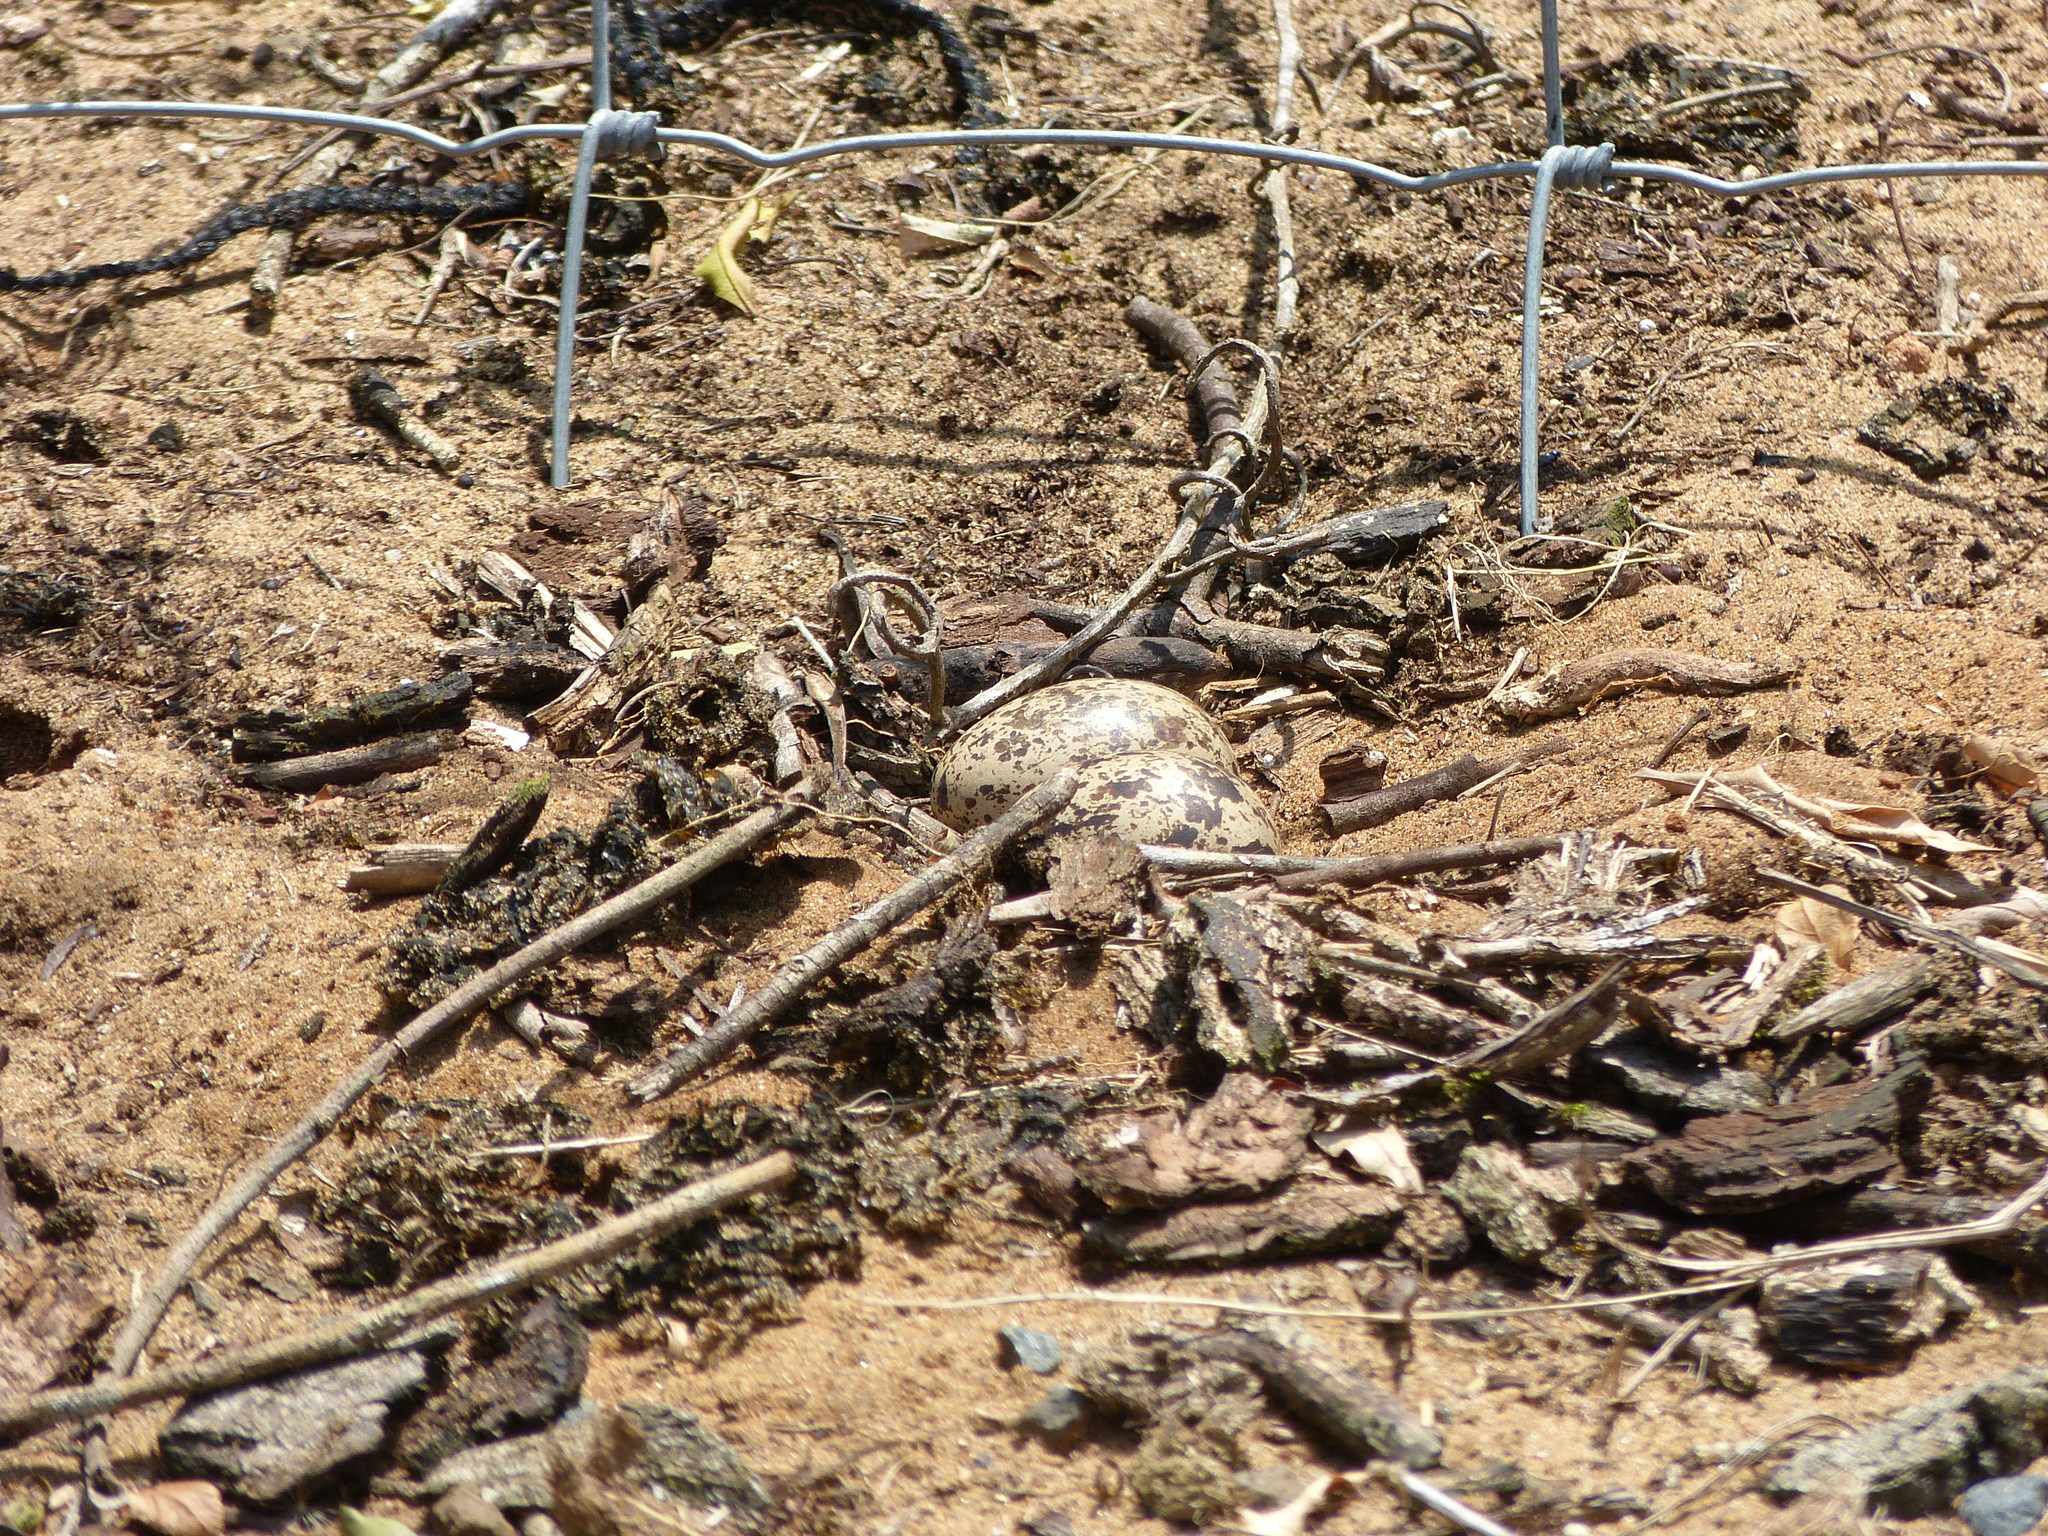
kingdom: Animalia
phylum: Chordata
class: Aves
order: Charadriiformes
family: Burhinidae
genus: Burhinus
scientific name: Burhinus vermiculatus
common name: Water thick-knee
